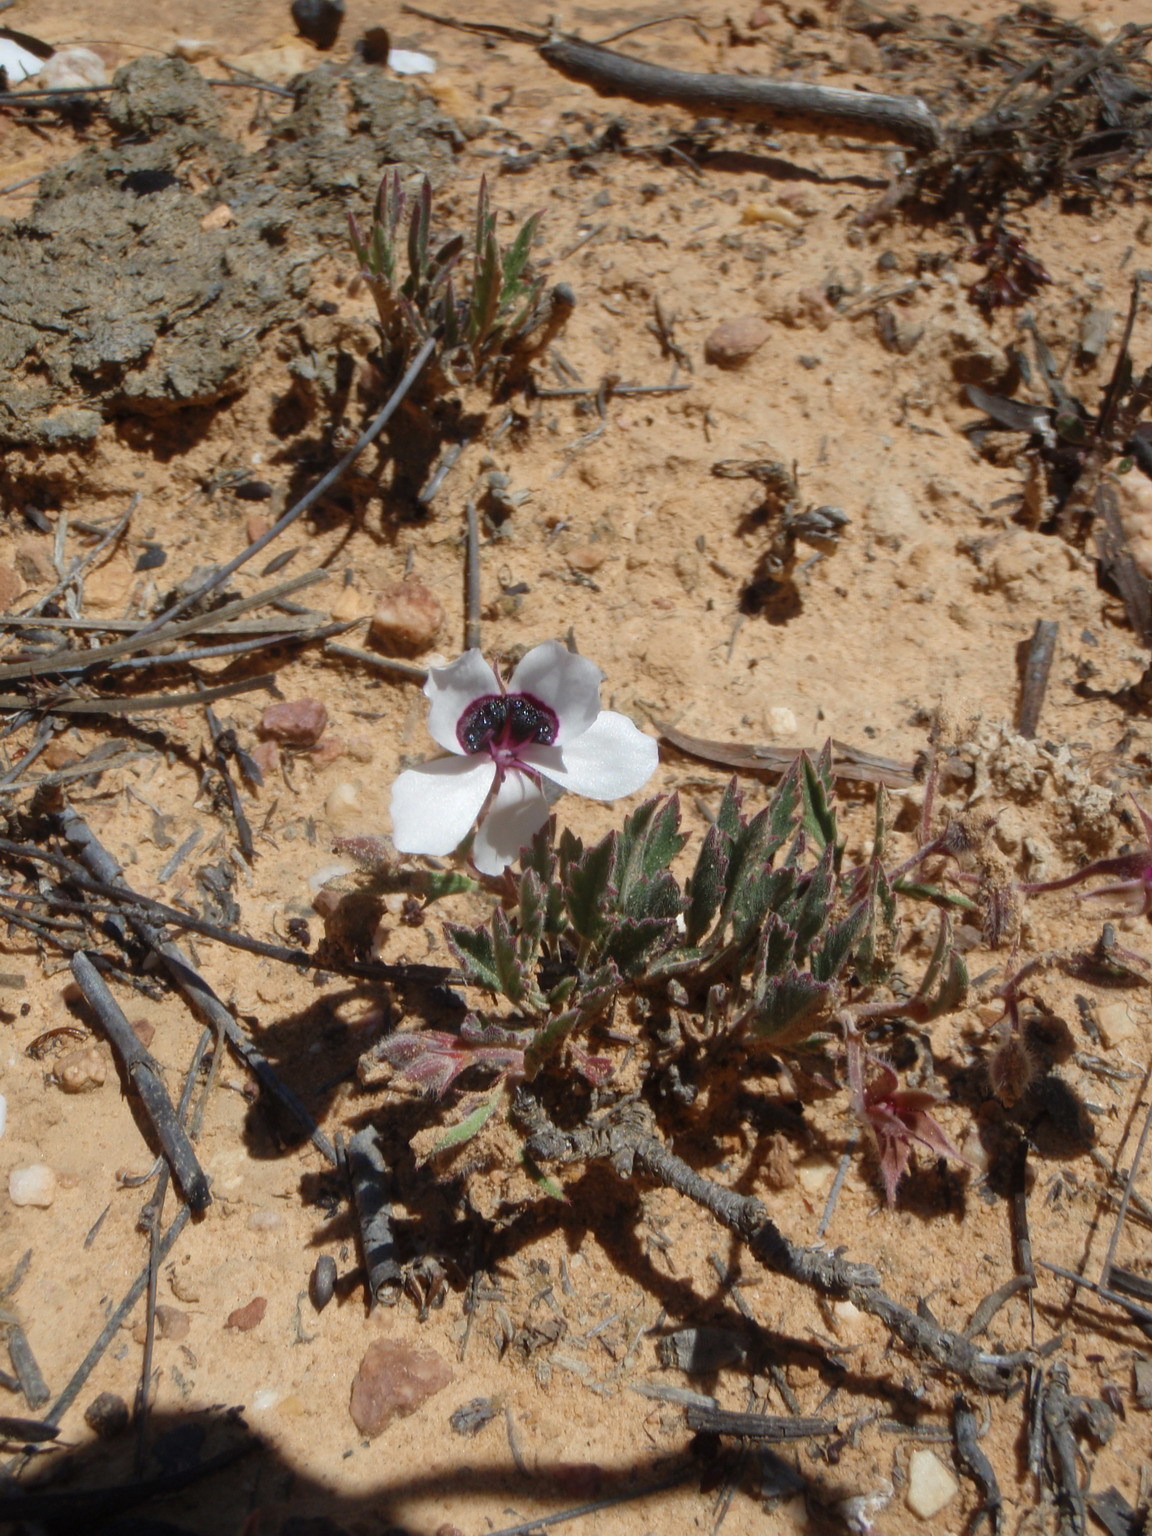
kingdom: Plantae
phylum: Tracheophyta
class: Magnoliopsida
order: Geraniales
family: Geraniaceae
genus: Pelargonium
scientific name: Pelargonium tricolor
